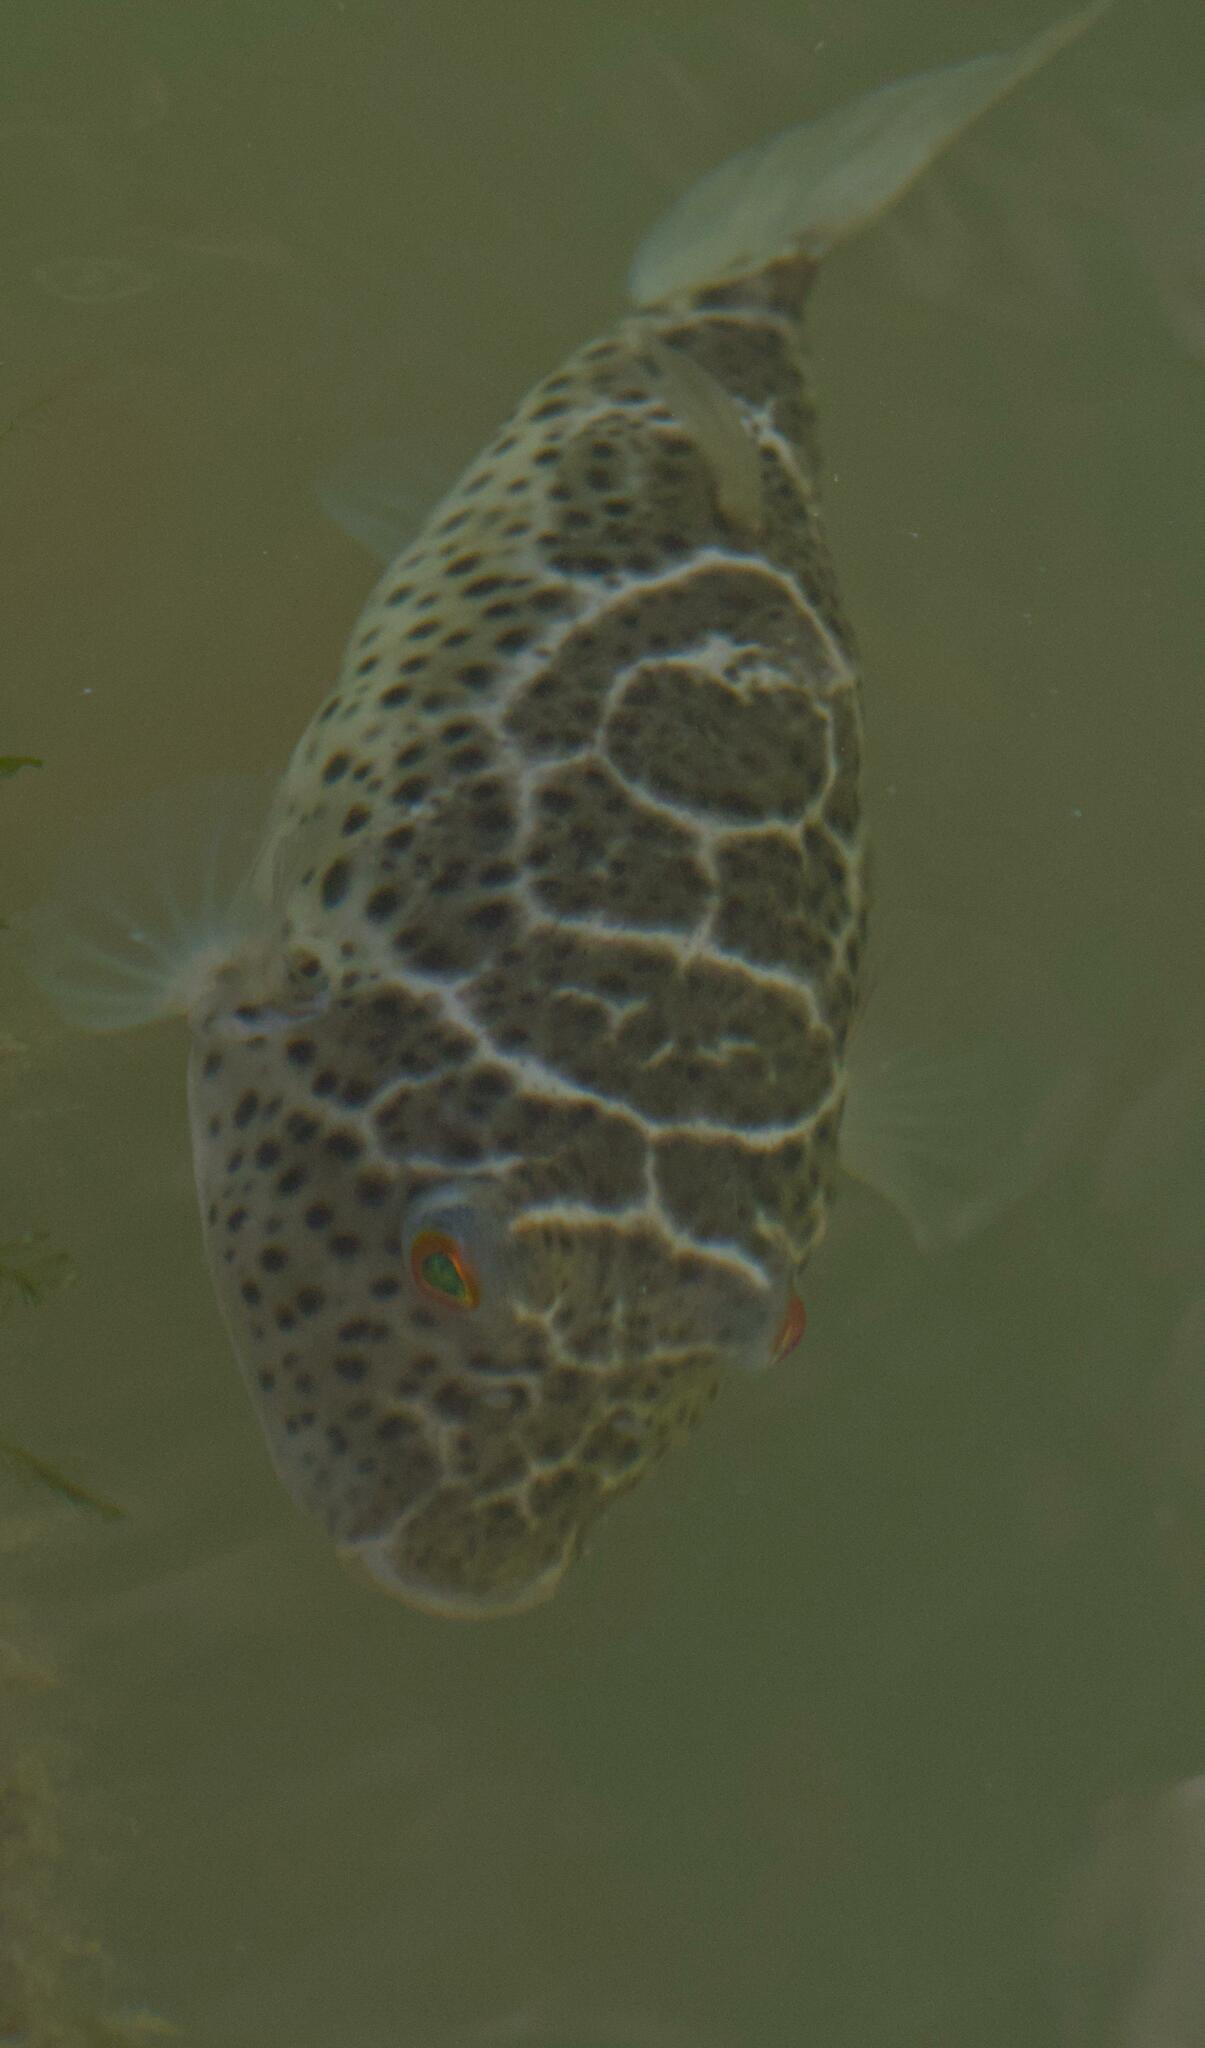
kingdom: Animalia
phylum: Chordata
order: Tetraodontiformes
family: Tetraodontidae
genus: Sphoeroides
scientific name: Sphoeroides testudineus
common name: Checkered puffer
